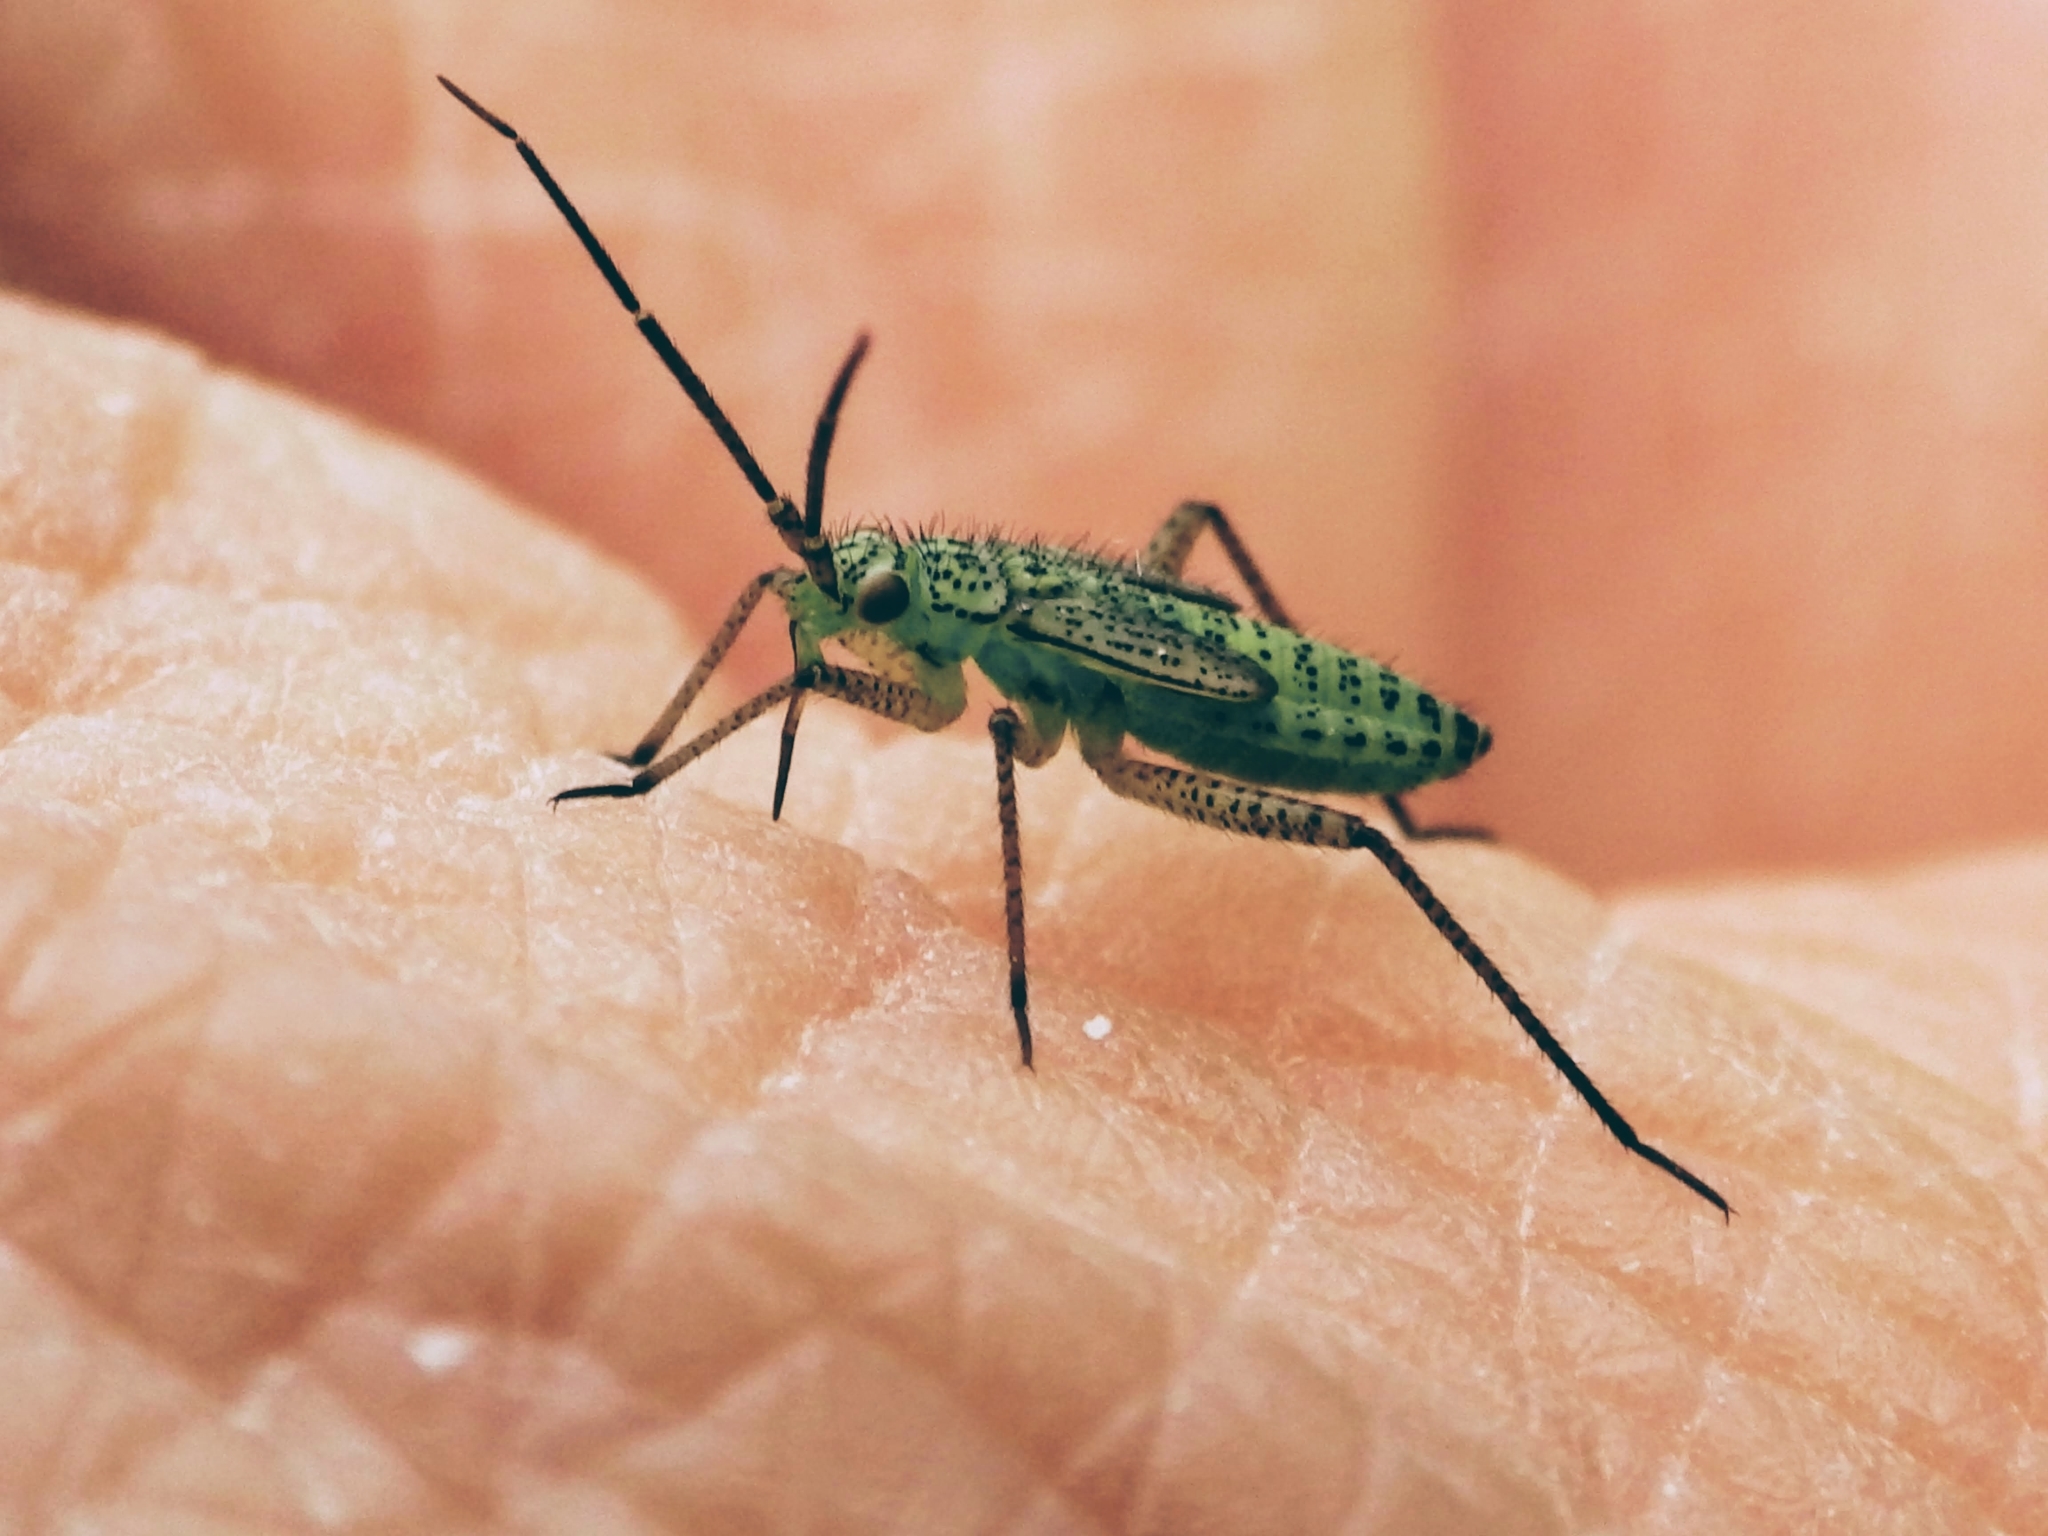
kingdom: Animalia
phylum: Arthropoda
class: Insecta
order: Hemiptera
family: Miridae
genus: Oncotylus
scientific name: Oncotylus viridiflavus
